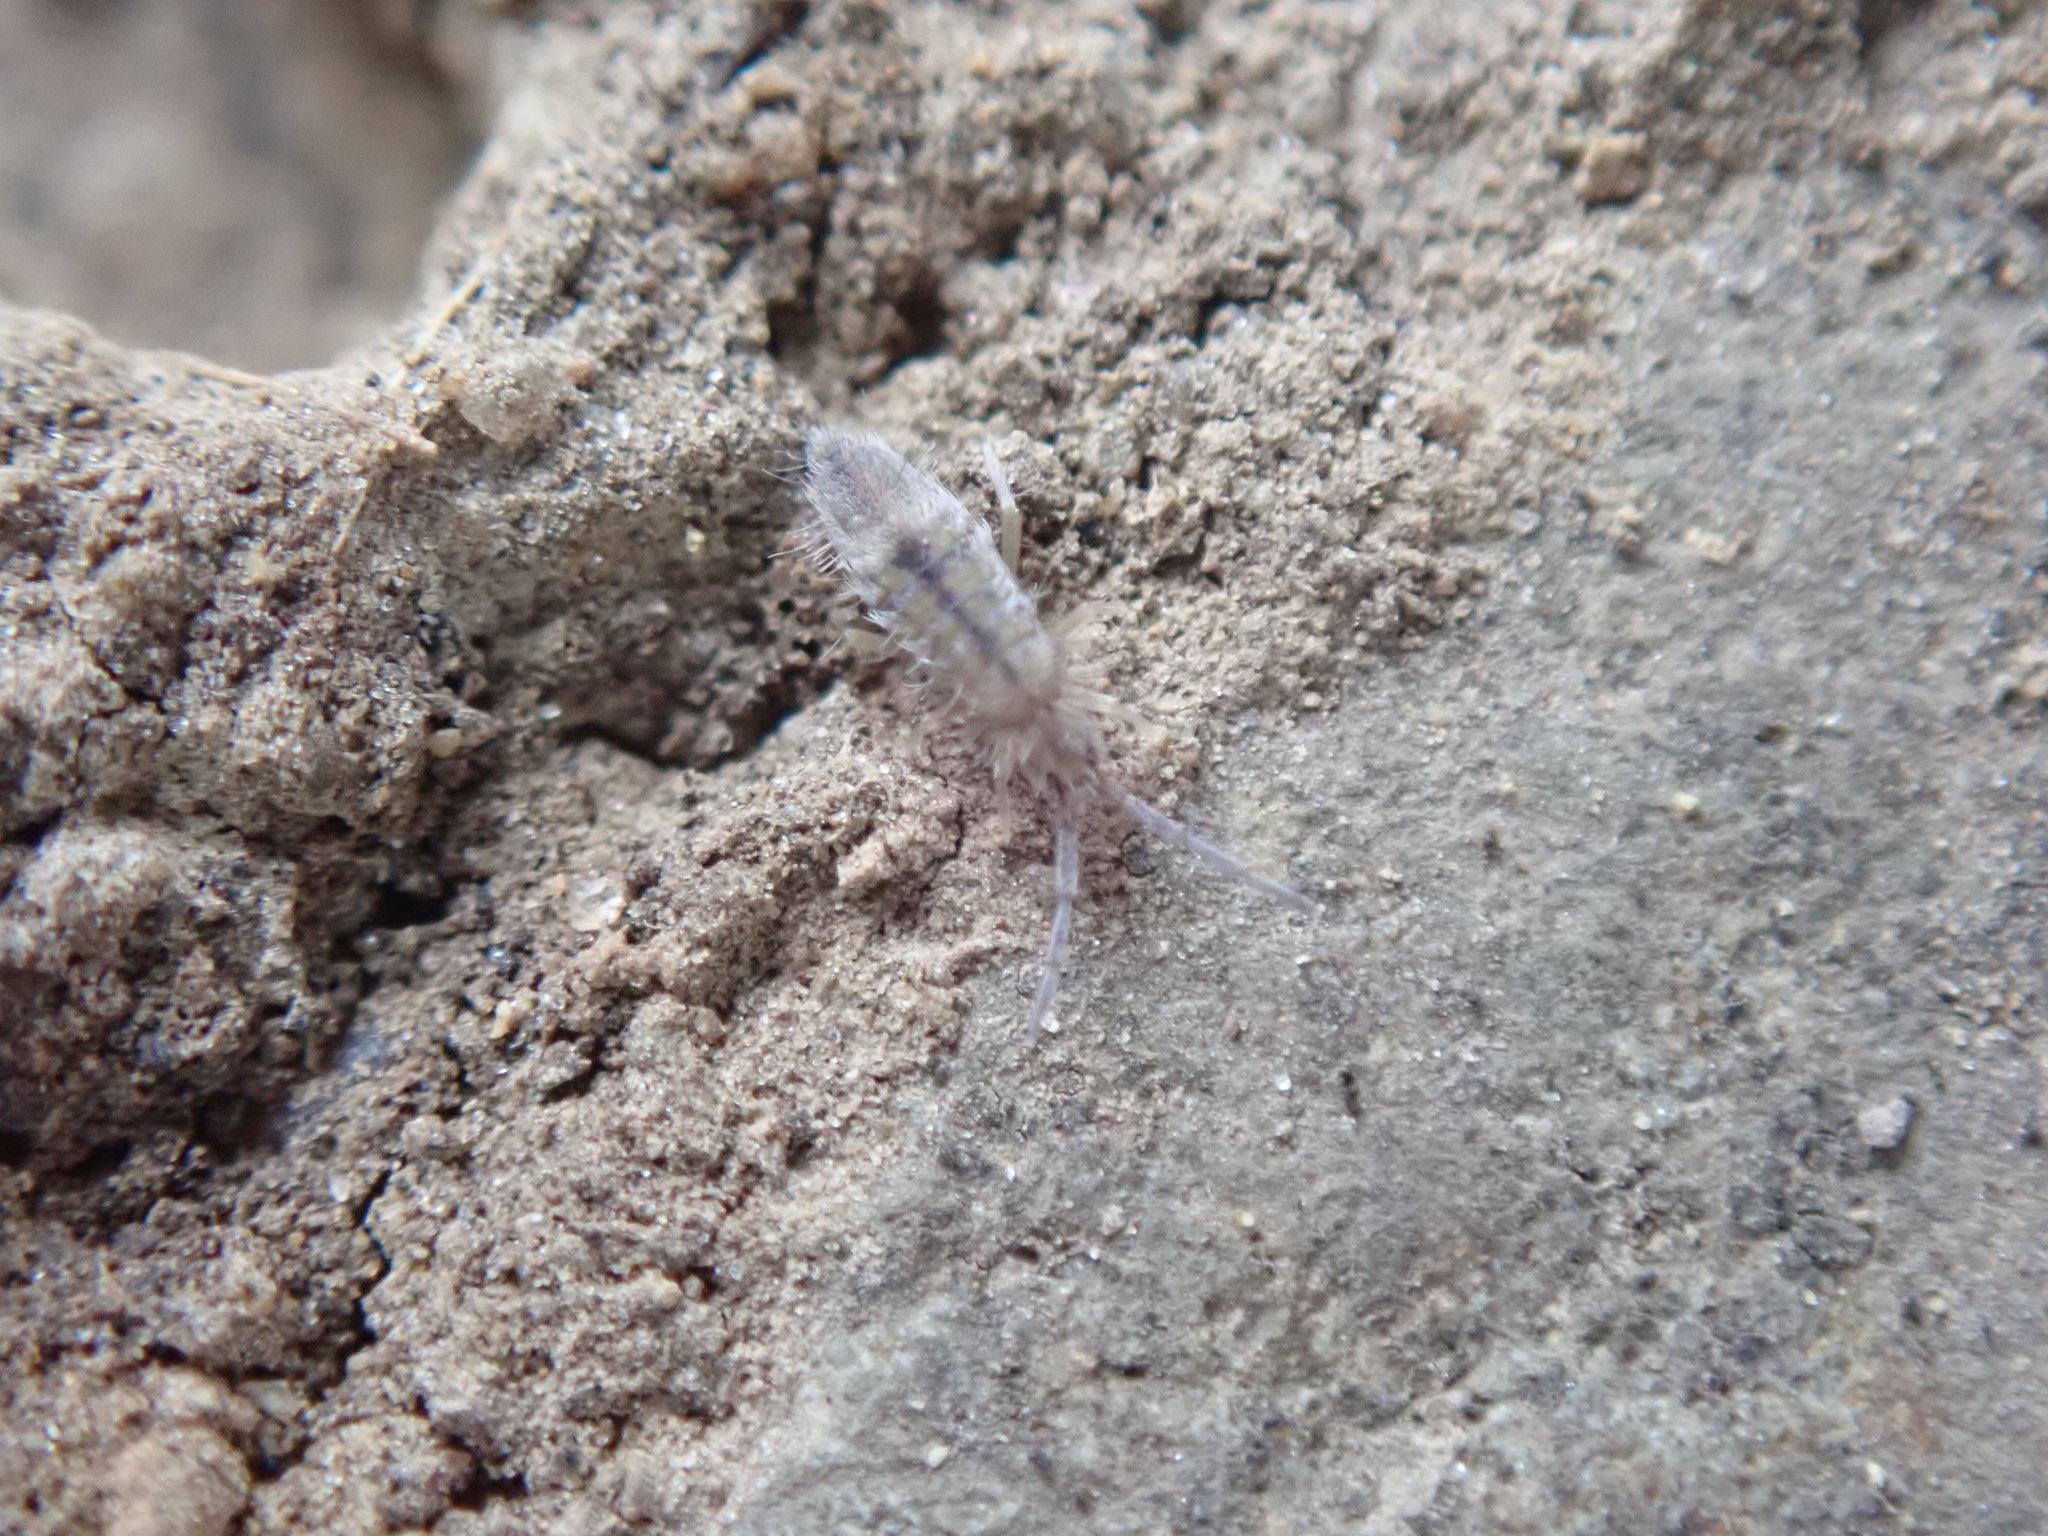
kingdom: Animalia
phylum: Arthropoda
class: Collembola
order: Entomobryomorpha
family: Entomobryidae
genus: Entomobrya
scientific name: Entomobrya unostrigata
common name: Springtail
